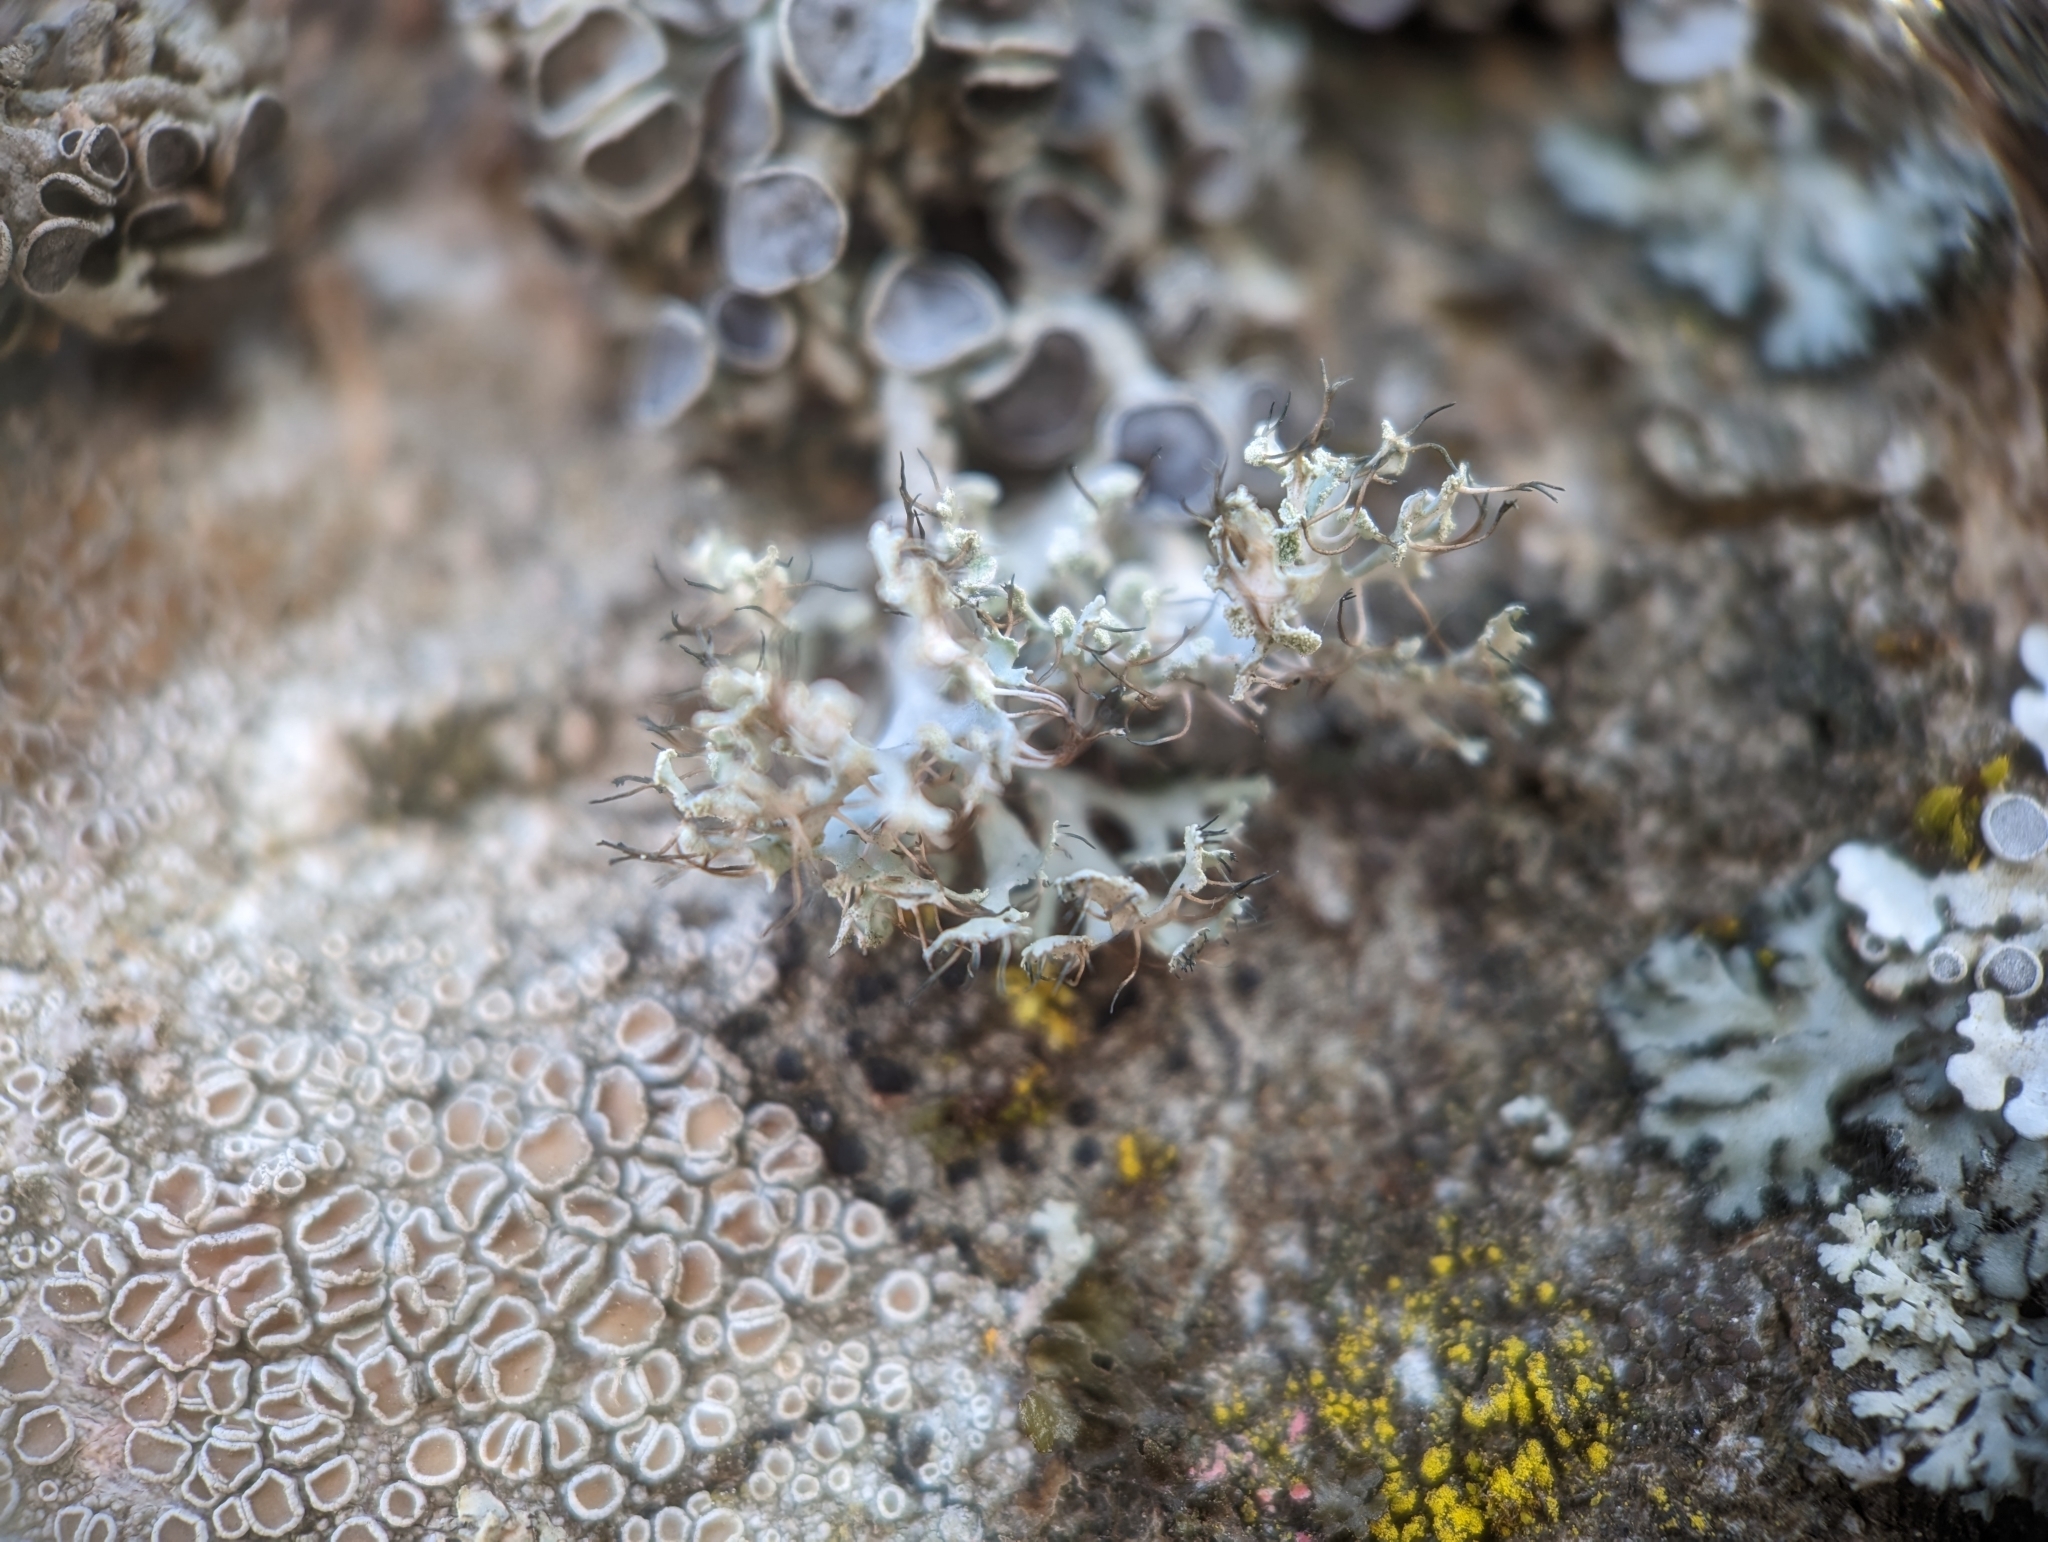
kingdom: Fungi
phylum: Ascomycota
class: Lecanoromycetes
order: Caliciales
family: Physciaceae
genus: Physcia
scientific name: Physcia tenella
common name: Fringed rosette lichen
